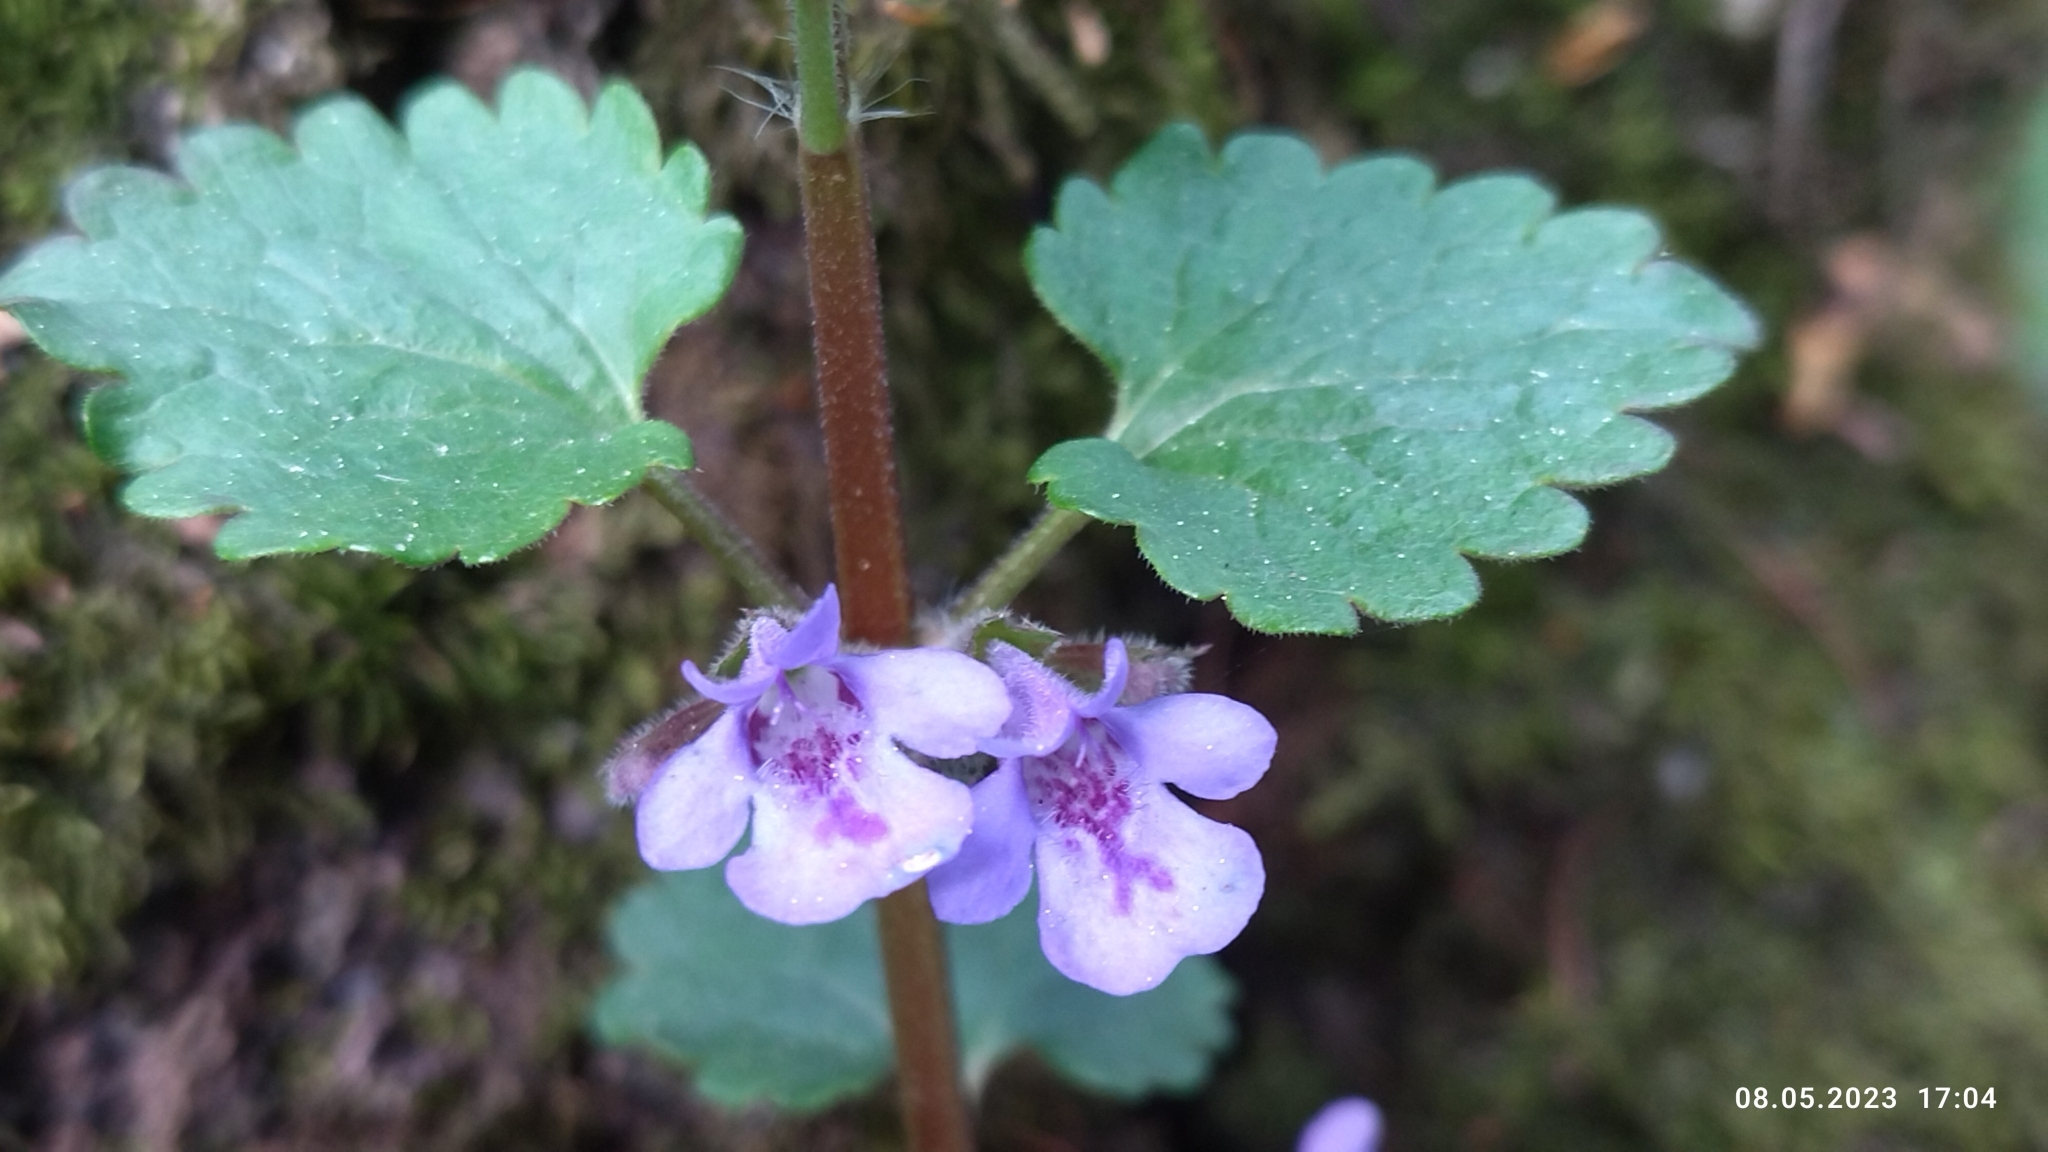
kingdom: Plantae
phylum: Tracheophyta
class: Magnoliopsida
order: Lamiales
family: Lamiaceae
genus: Glechoma
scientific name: Glechoma hederacea
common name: Ground ivy
